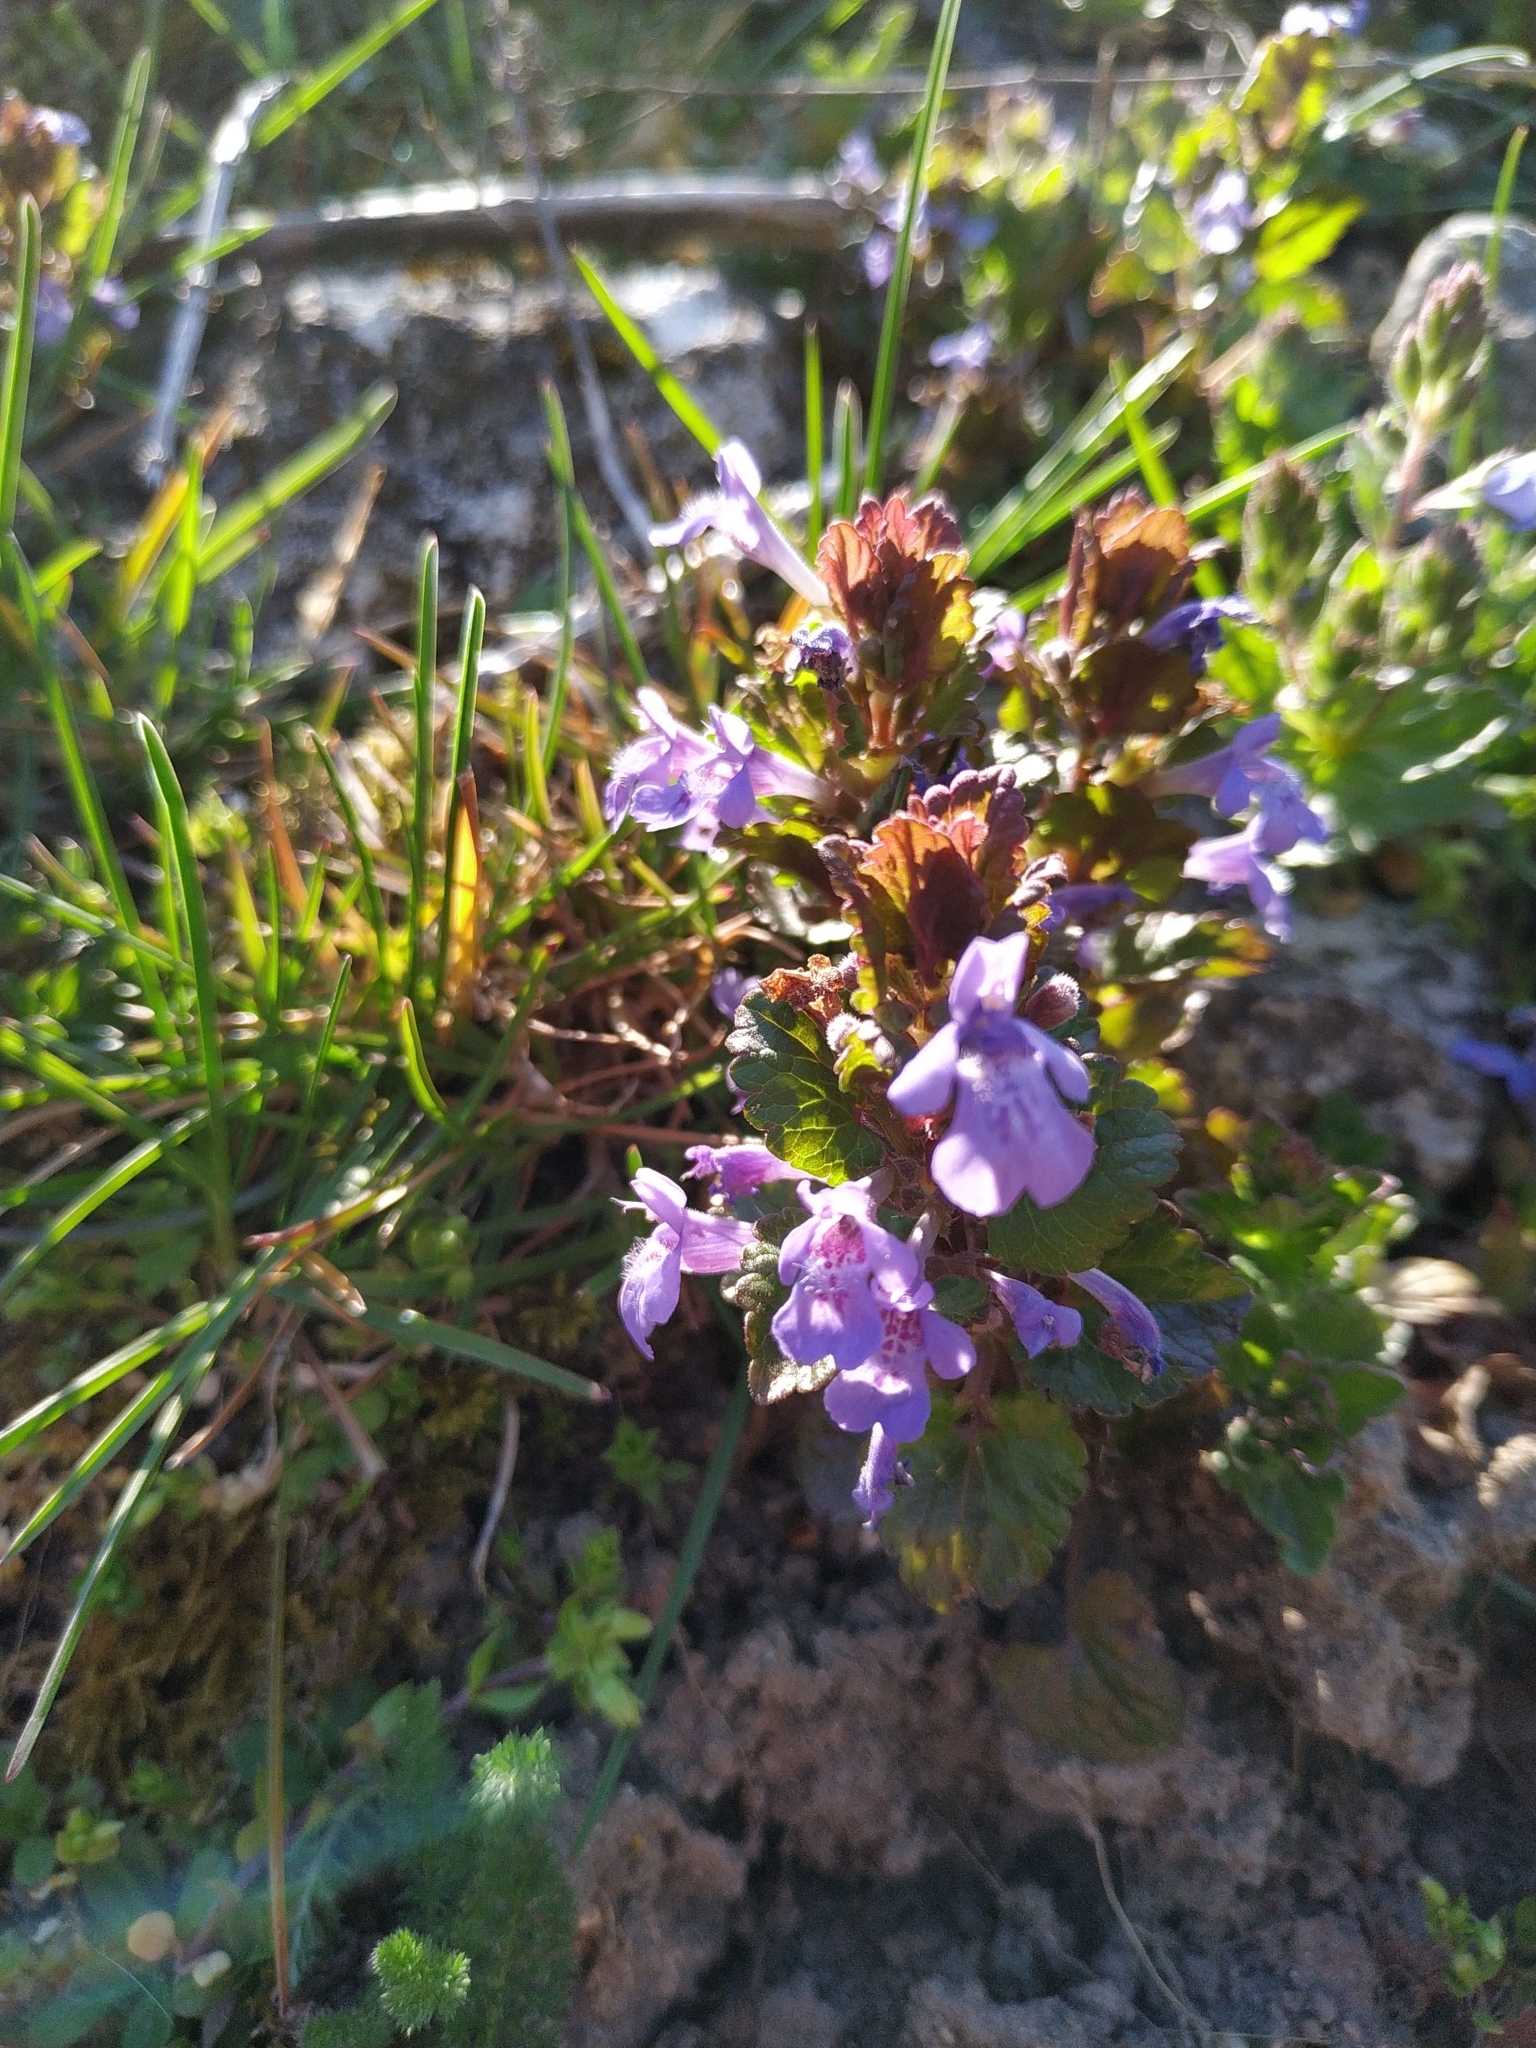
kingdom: Plantae
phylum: Tracheophyta
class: Magnoliopsida
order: Lamiales
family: Lamiaceae
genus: Glechoma
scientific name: Glechoma hederacea
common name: Ground ivy
